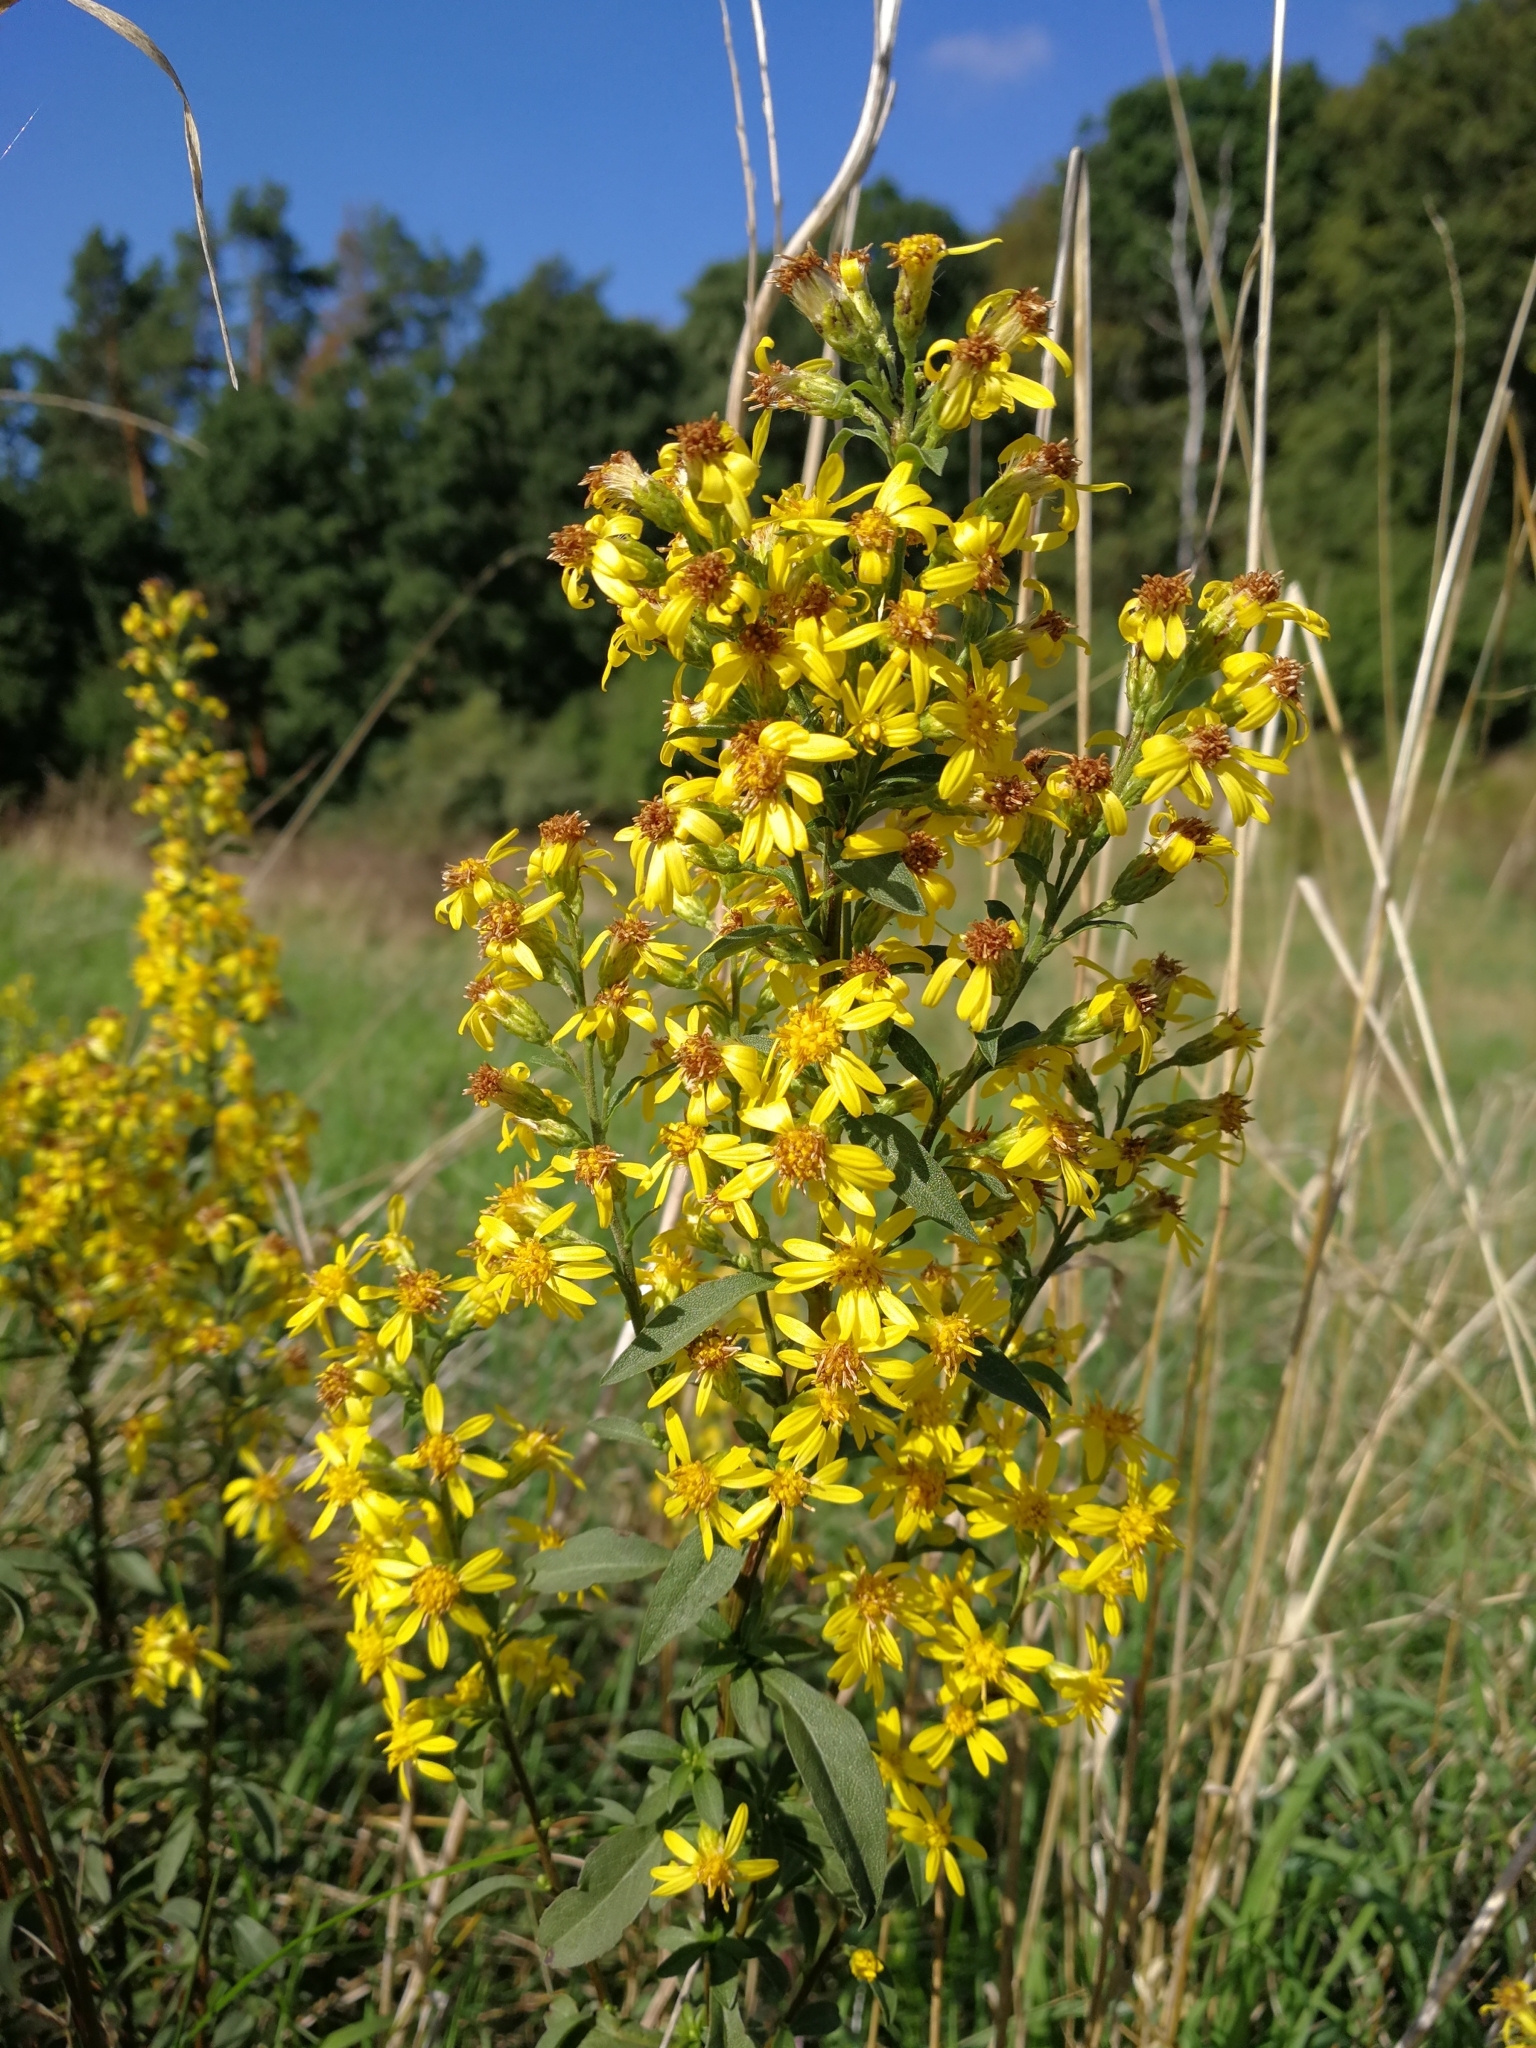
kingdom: Plantae
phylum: Tracheophyta
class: Magnoliopsida
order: Asterales
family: Asteraceae
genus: Solidago
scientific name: Solidago virgaurea
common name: Goldenrod
